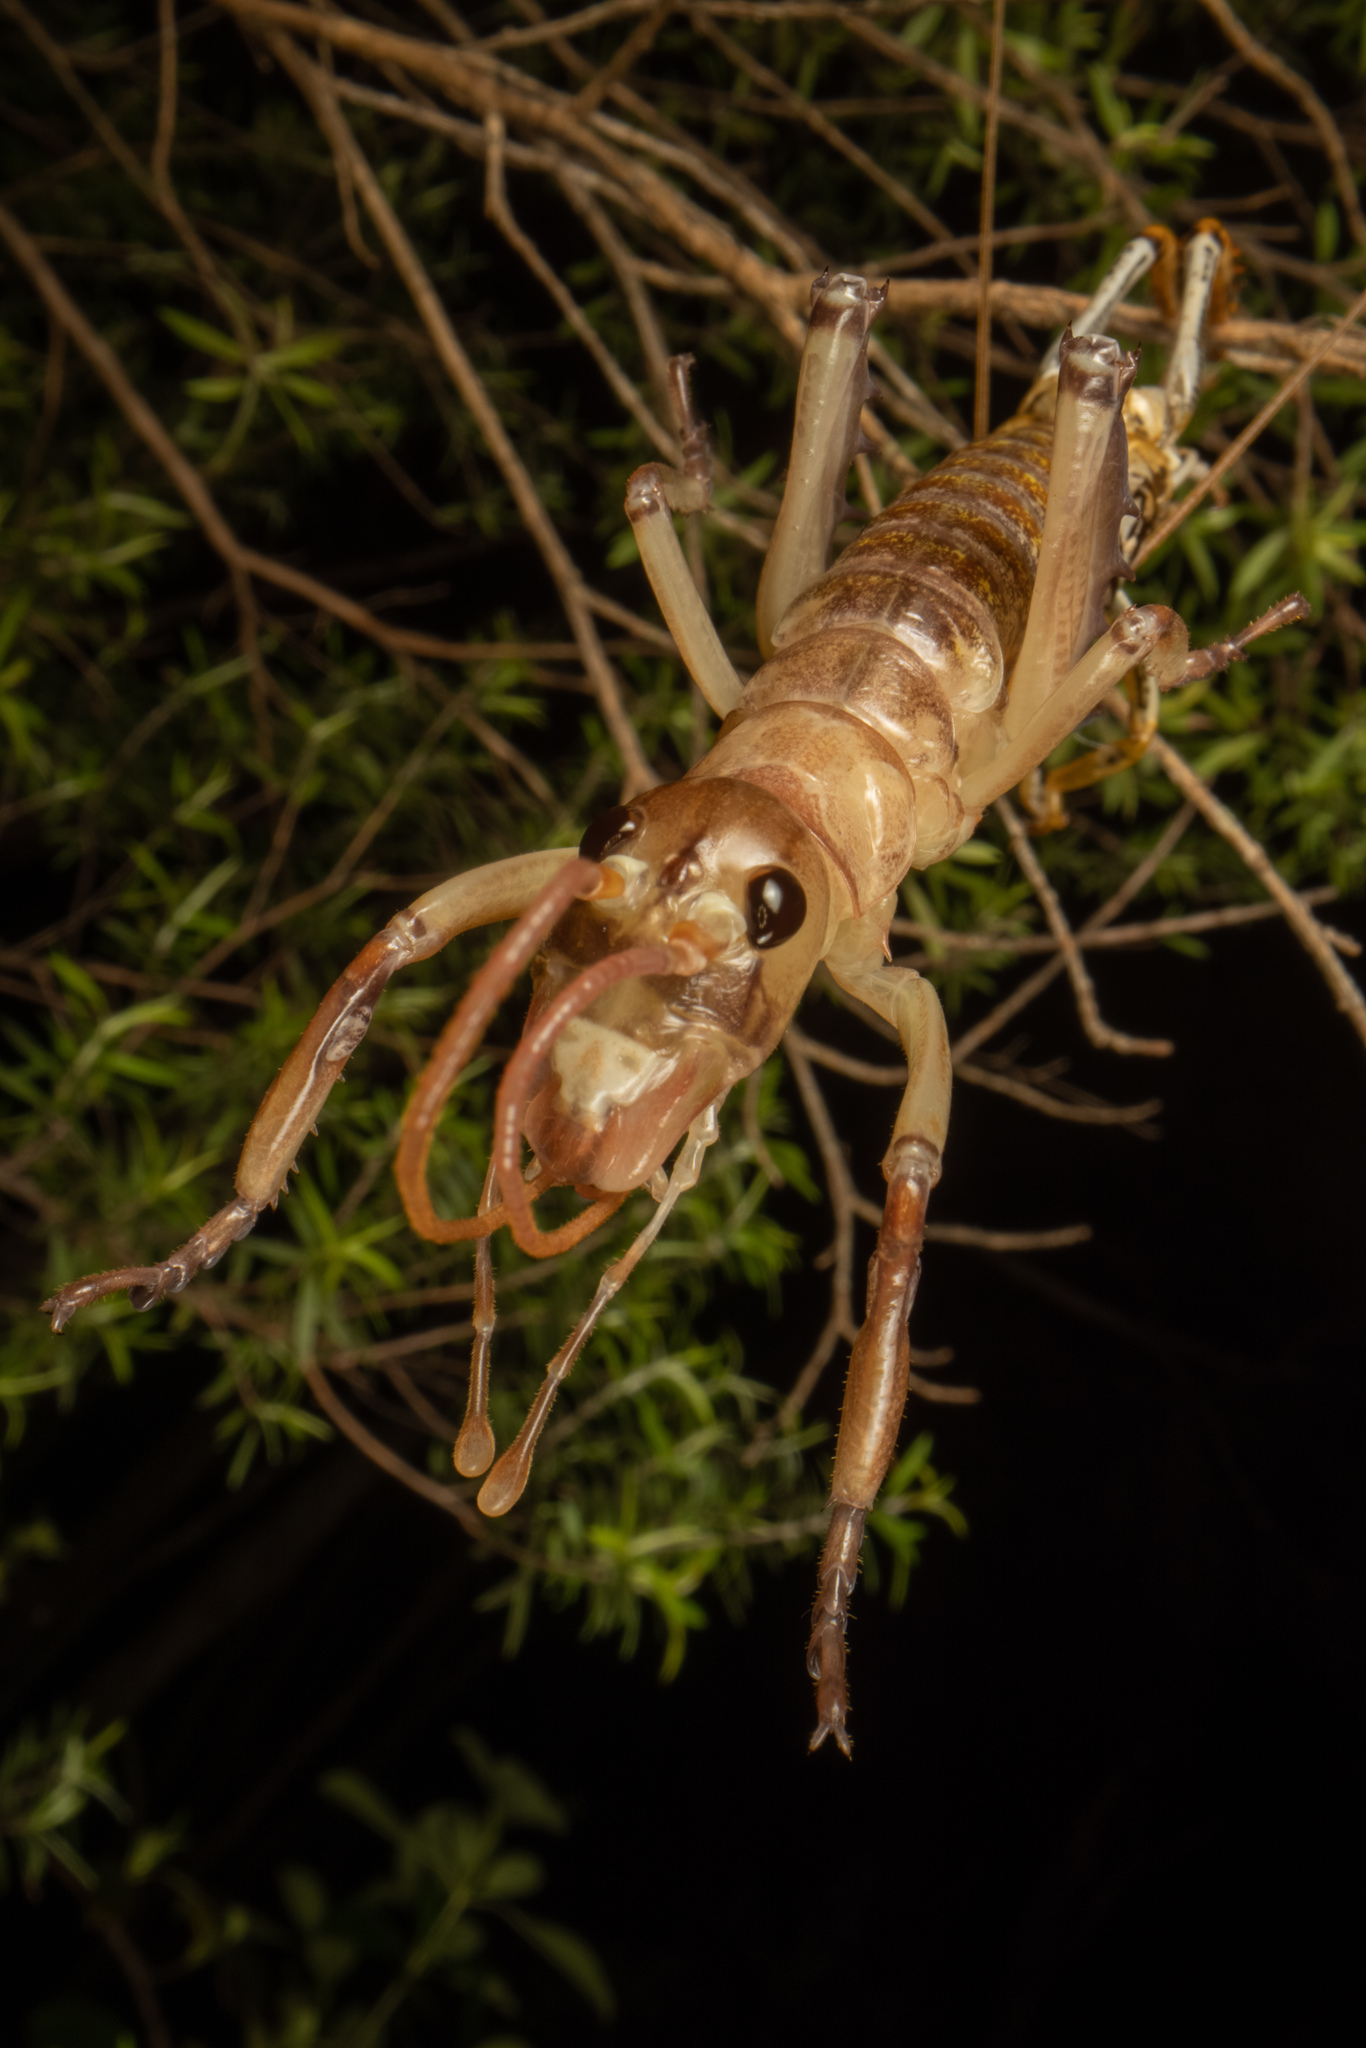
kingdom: Animalia
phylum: Arthropoda
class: Insecta
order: Orthoptera
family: Anostostomatidae
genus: Hemideina
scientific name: Hemideina thoracica
